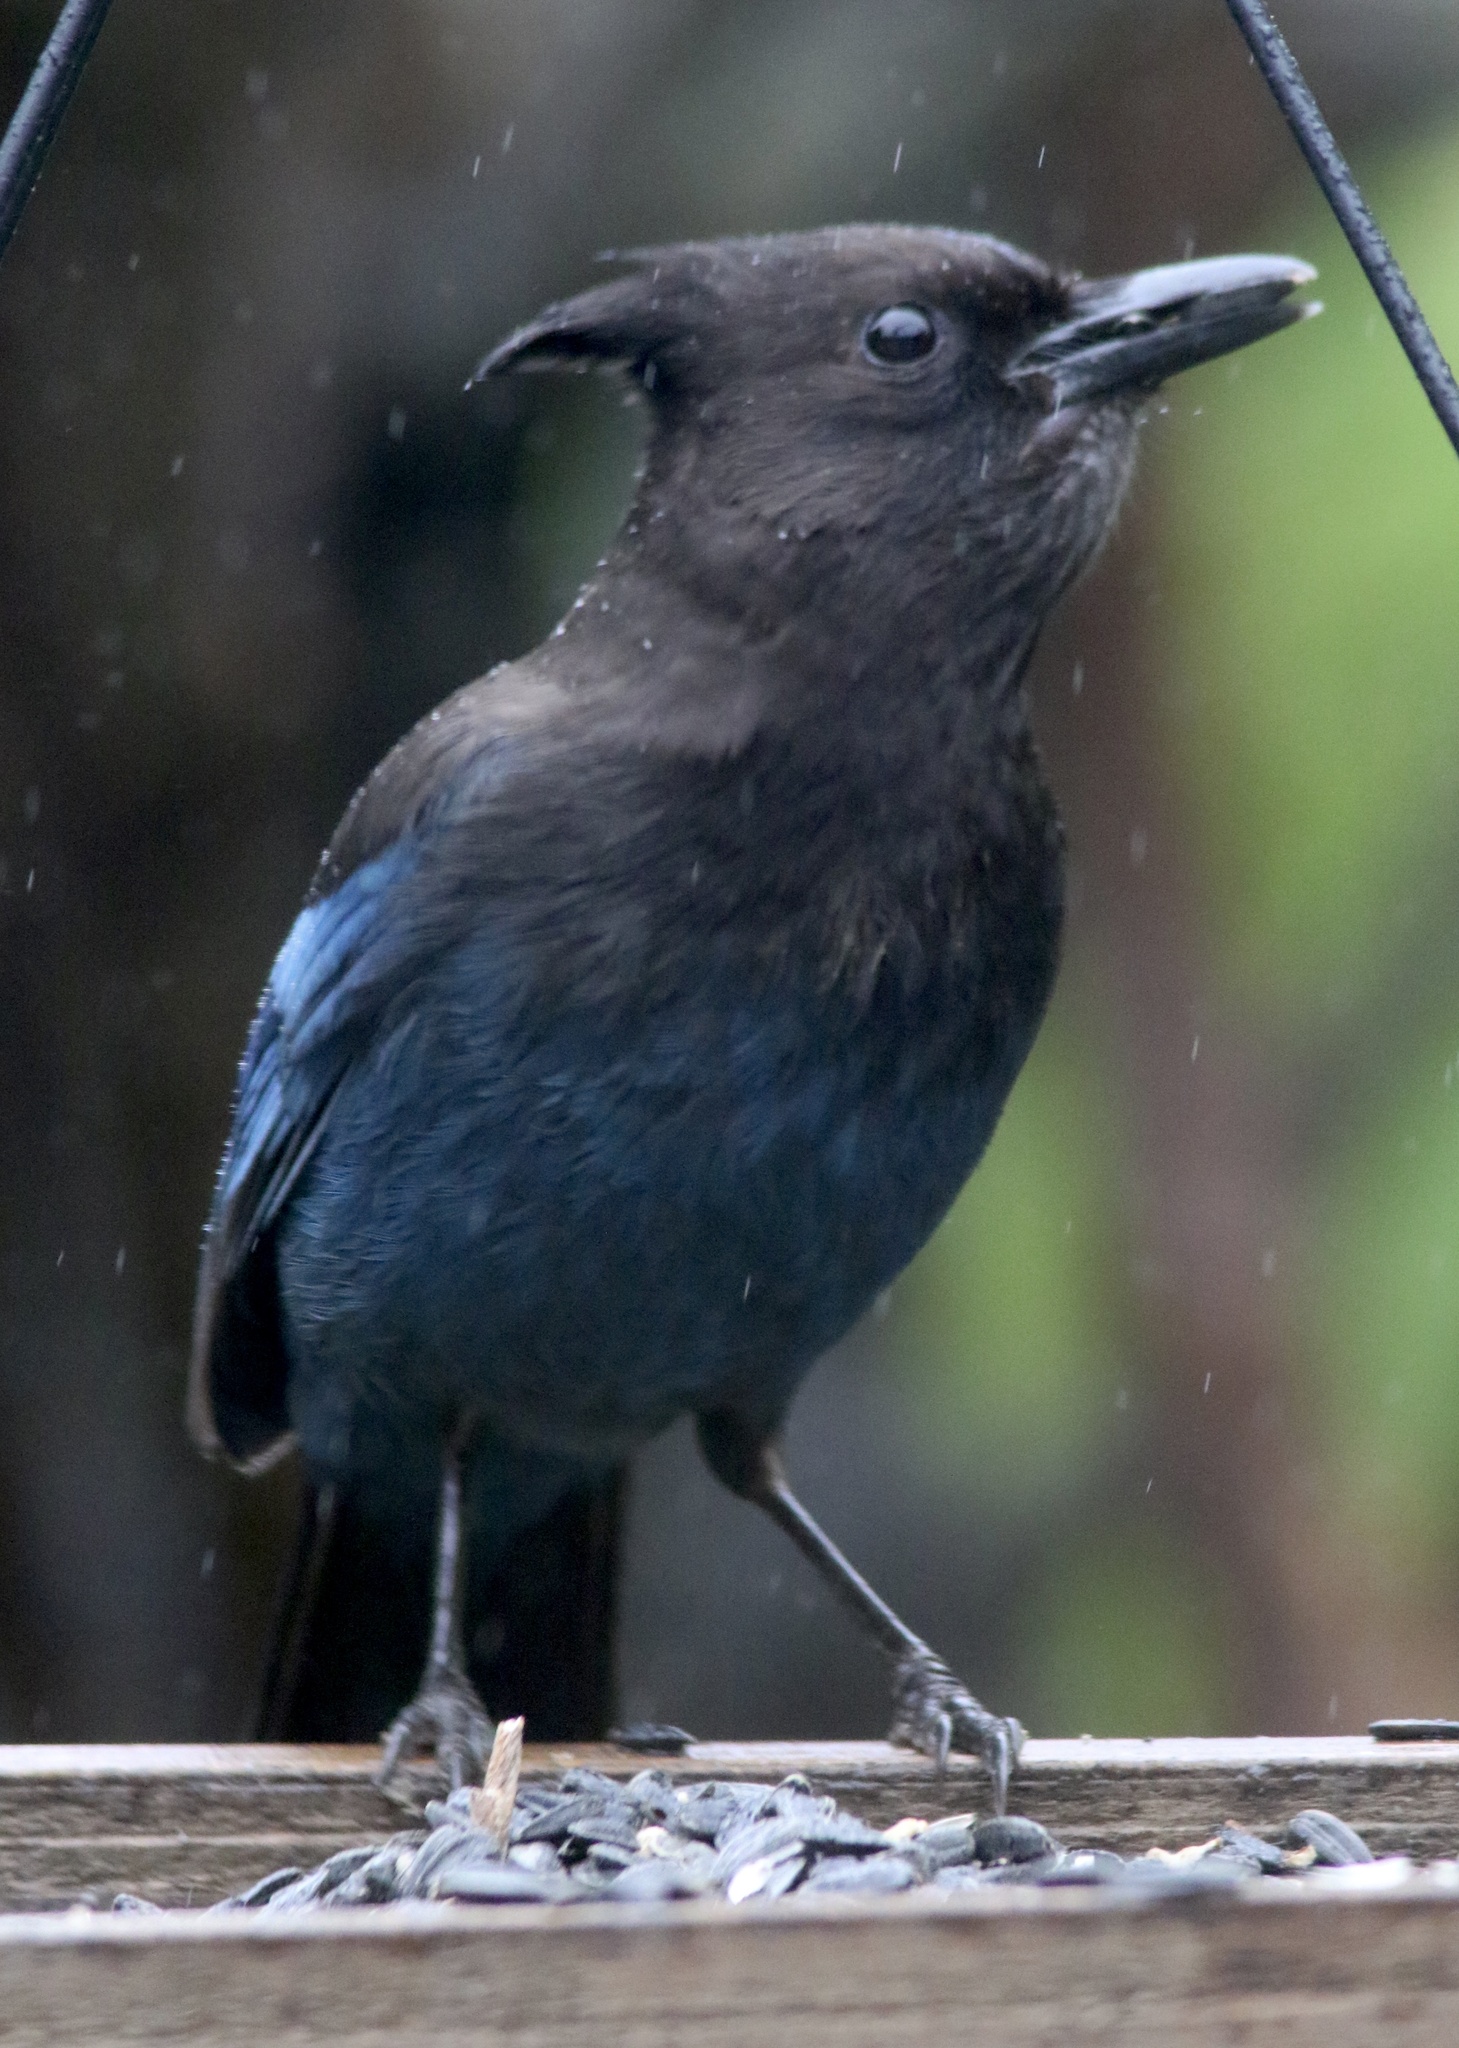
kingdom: Animalia
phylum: Chordata
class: Aves
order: Passeriformes
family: Corvidae
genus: Cyanocitta
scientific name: Cyanocitta stelleri
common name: Steller's jay
